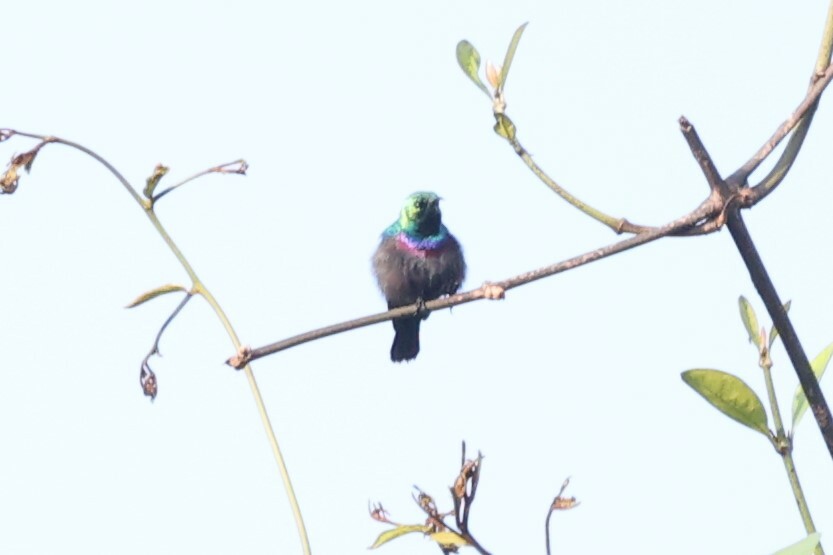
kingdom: Animalia
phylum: Chordata
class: Aves
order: Passeriformes
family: Nectariniidae
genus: Cinnyris
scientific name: Cinnyris bifasciatus
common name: Purple-banded sunbird
